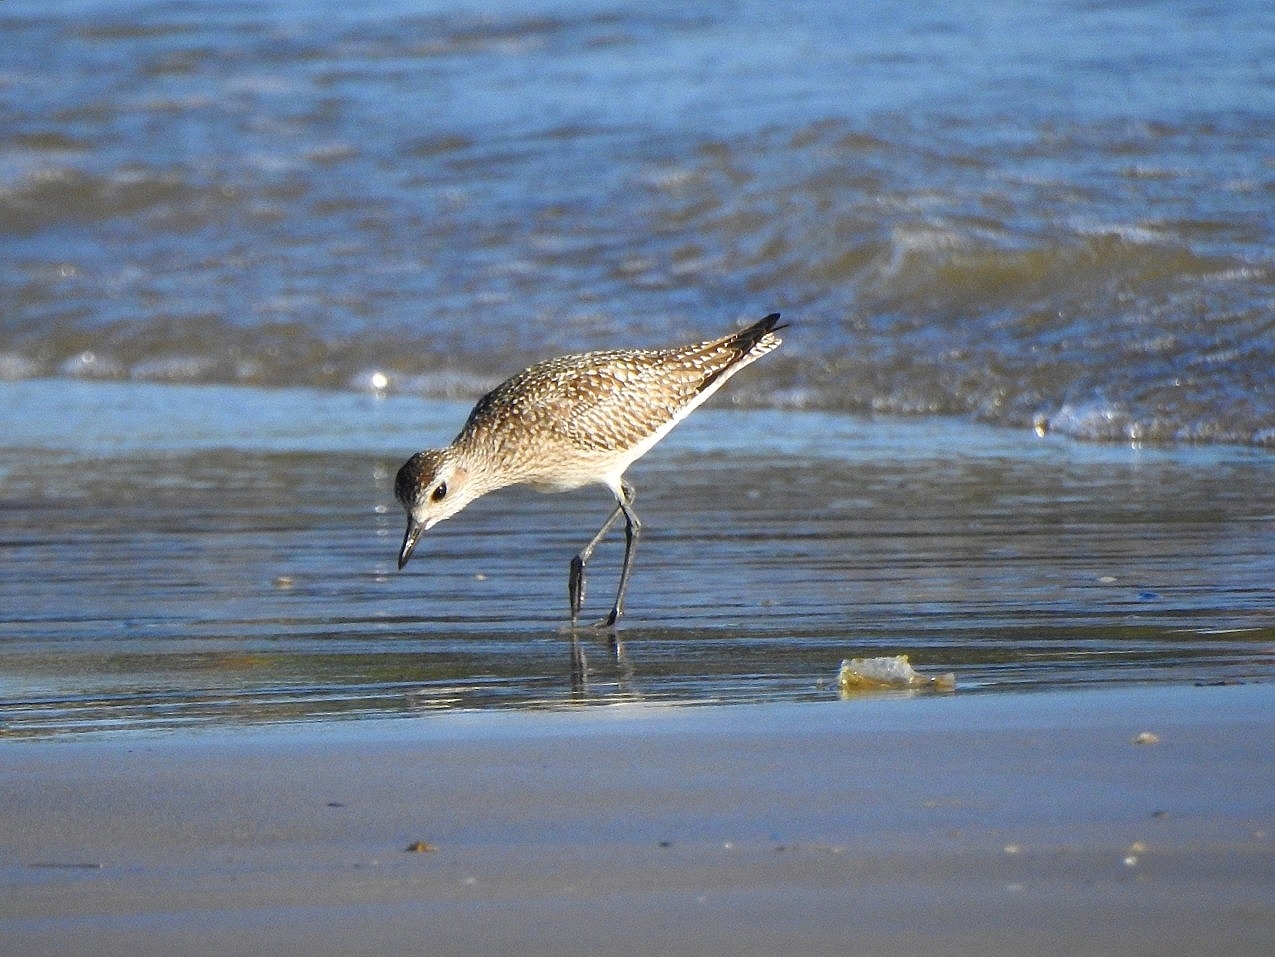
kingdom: Animalia
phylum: Chordata
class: Aves
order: Charadriiformes
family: Charadriidae
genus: Pluvialis
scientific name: Pluvialis squatarola
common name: Grey plover
